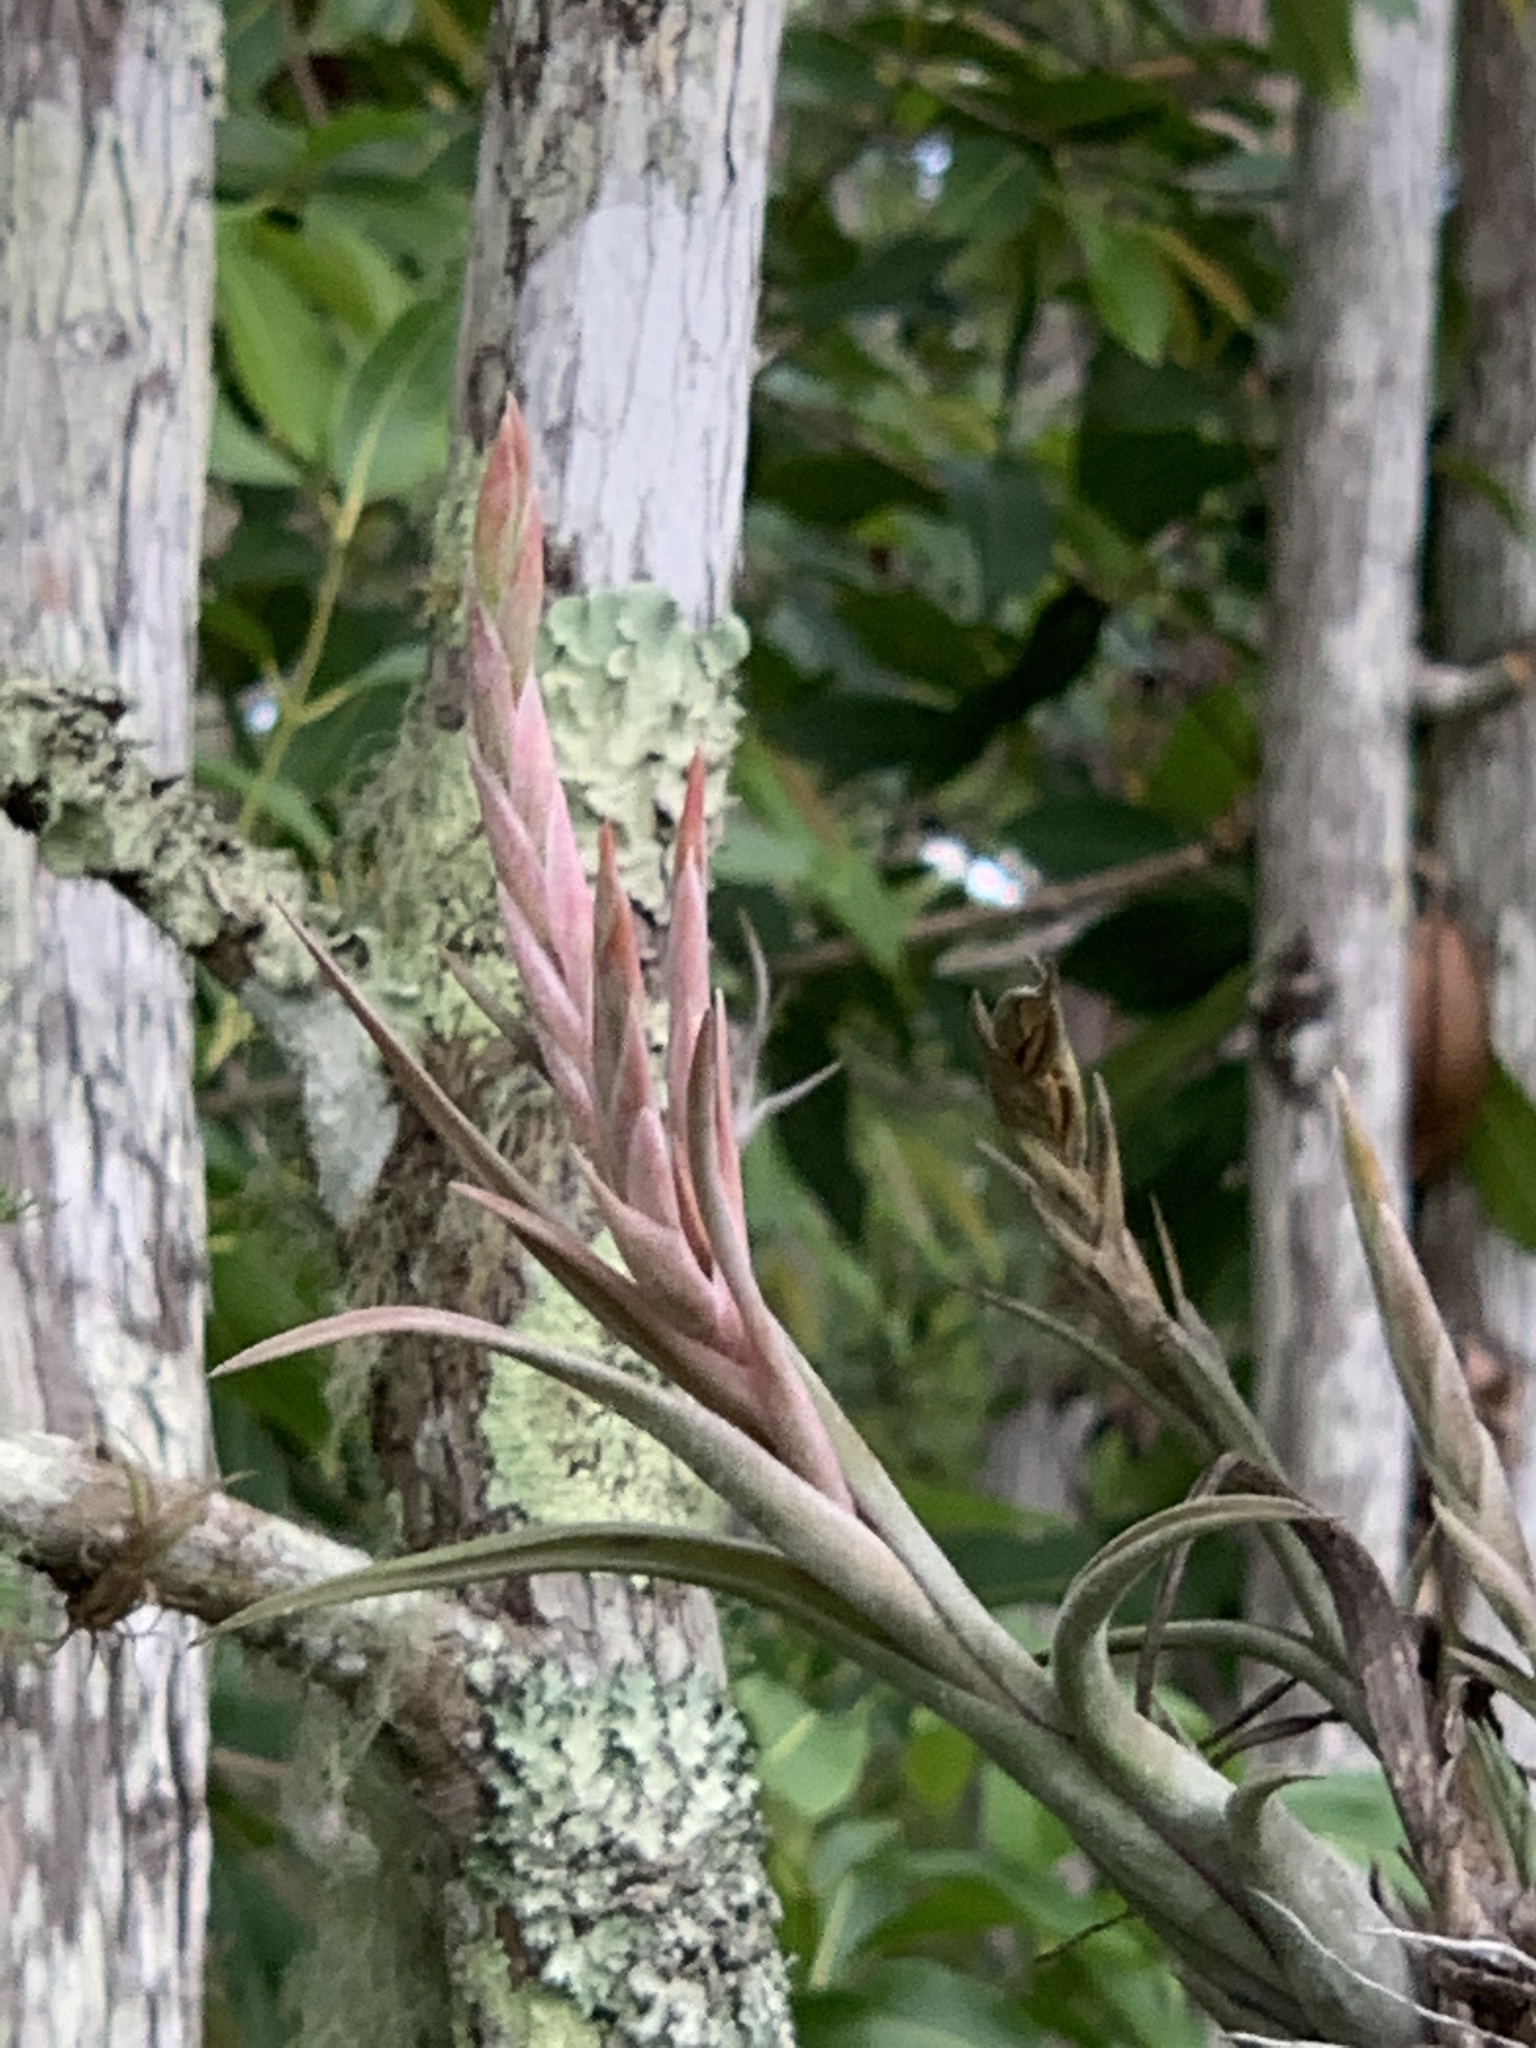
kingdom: Plantae
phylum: Tracheophyta
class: Liliopsida
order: Poales
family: Bromeliaceae
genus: Tillandsia
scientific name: Tillandsia paucifolia
